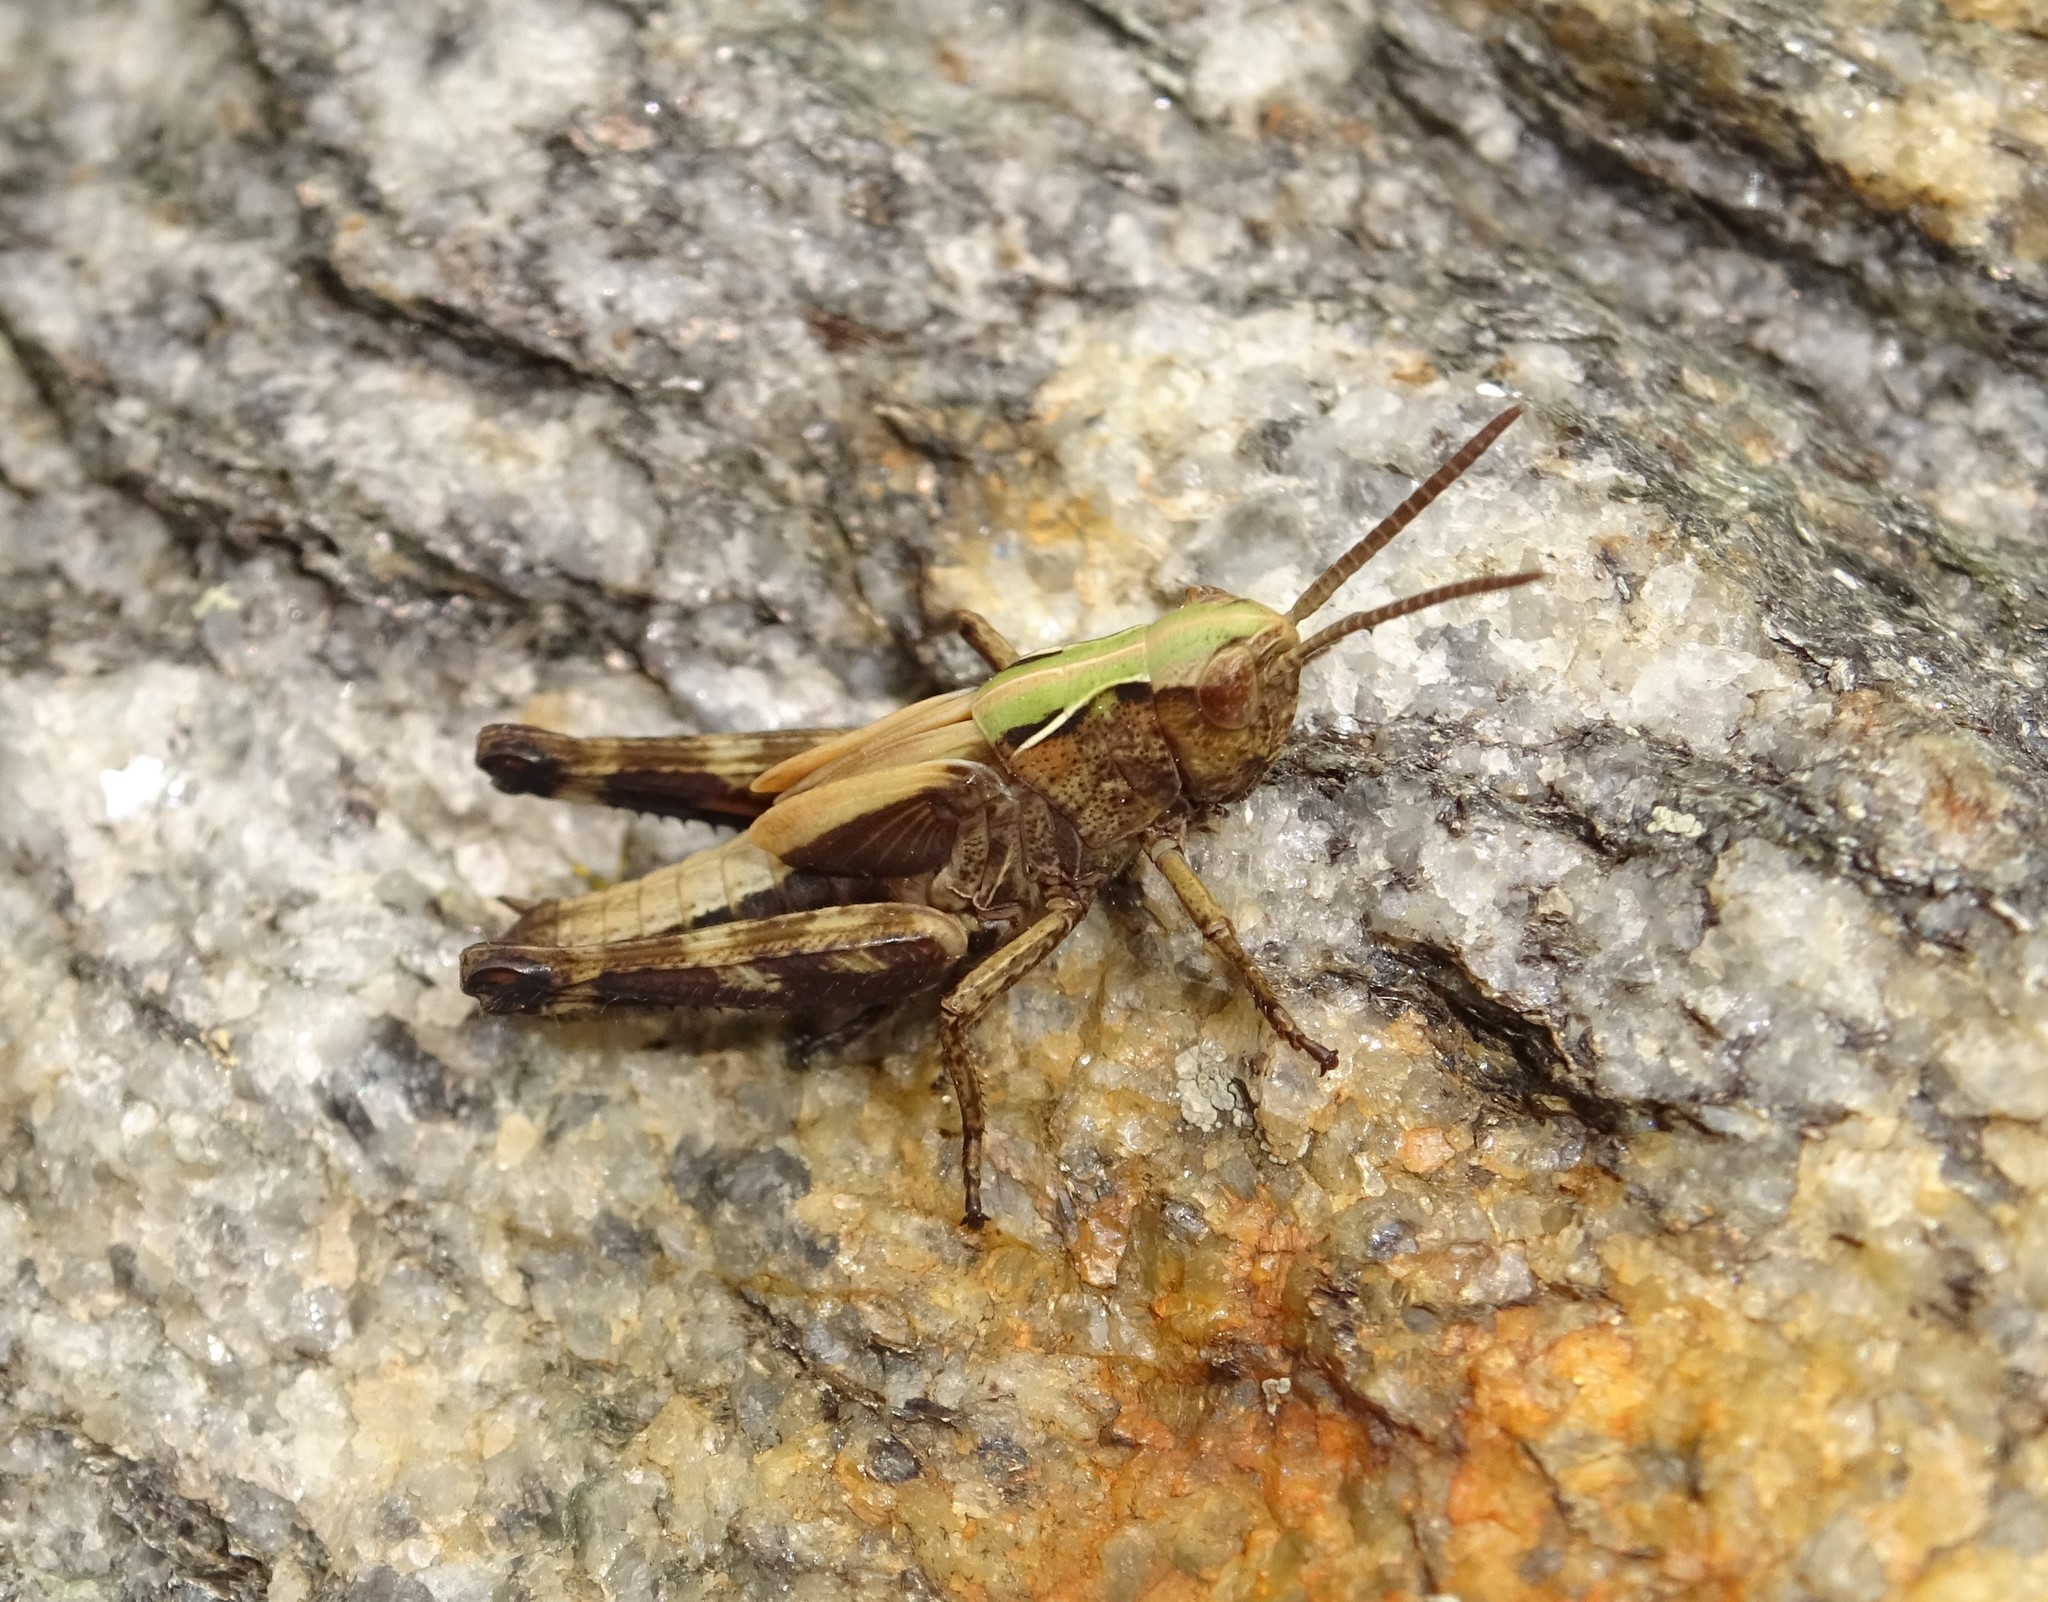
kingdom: Animalia
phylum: Arthropoda
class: Insecta
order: Orthoptera
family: Acrididae
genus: Omocestus
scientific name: Omocestus rufipes
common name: Woodland grasshopper
